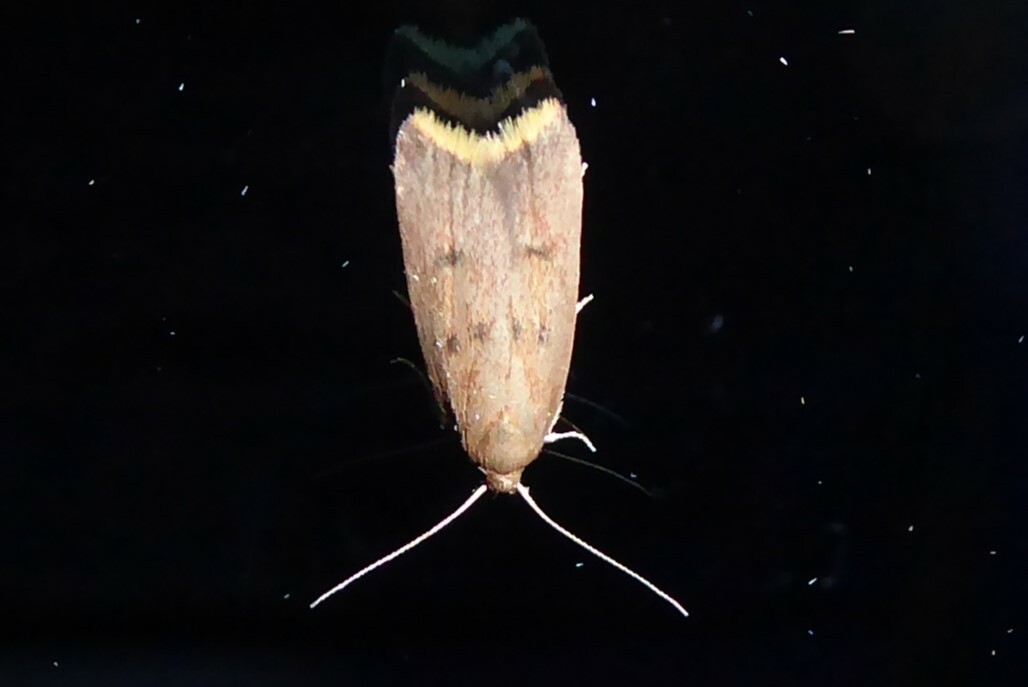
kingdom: Animalia
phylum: Arthropoda
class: Insecta
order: Lepidoptera
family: Oecophoridae
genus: Tachystola
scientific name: Tachystola acroxantha
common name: Ruddy streak
